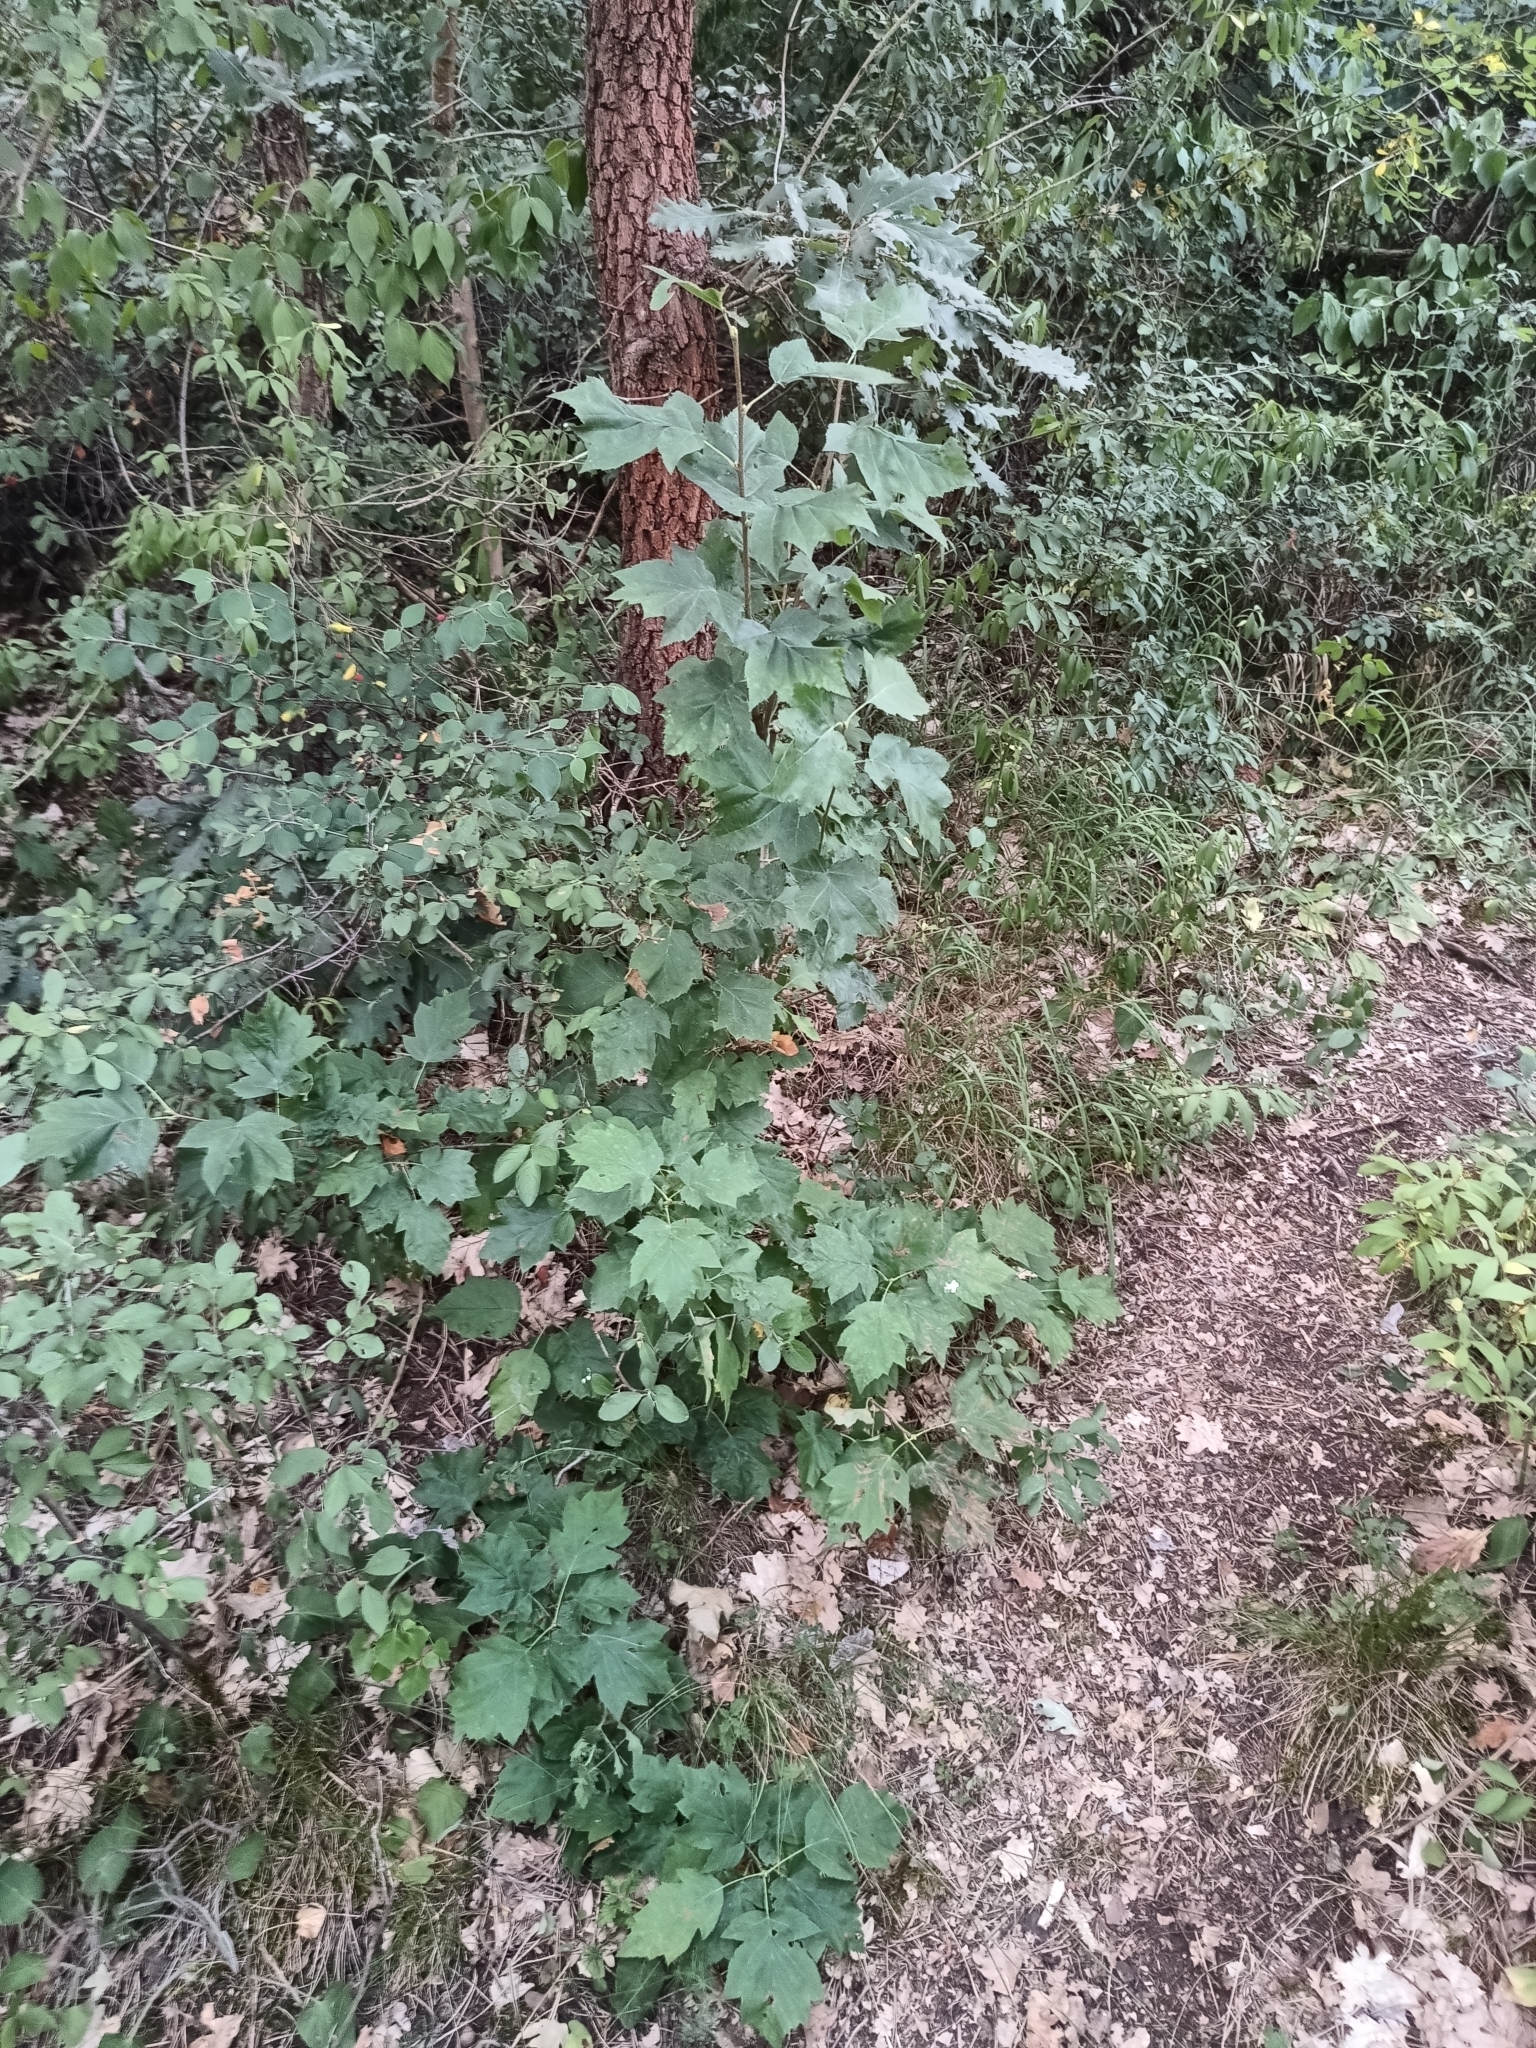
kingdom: Plantae
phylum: Tracheophyta
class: Magnoliopsida
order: Rosales
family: Rosaceae
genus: Torminalis
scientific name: Torminalis glaberrima
